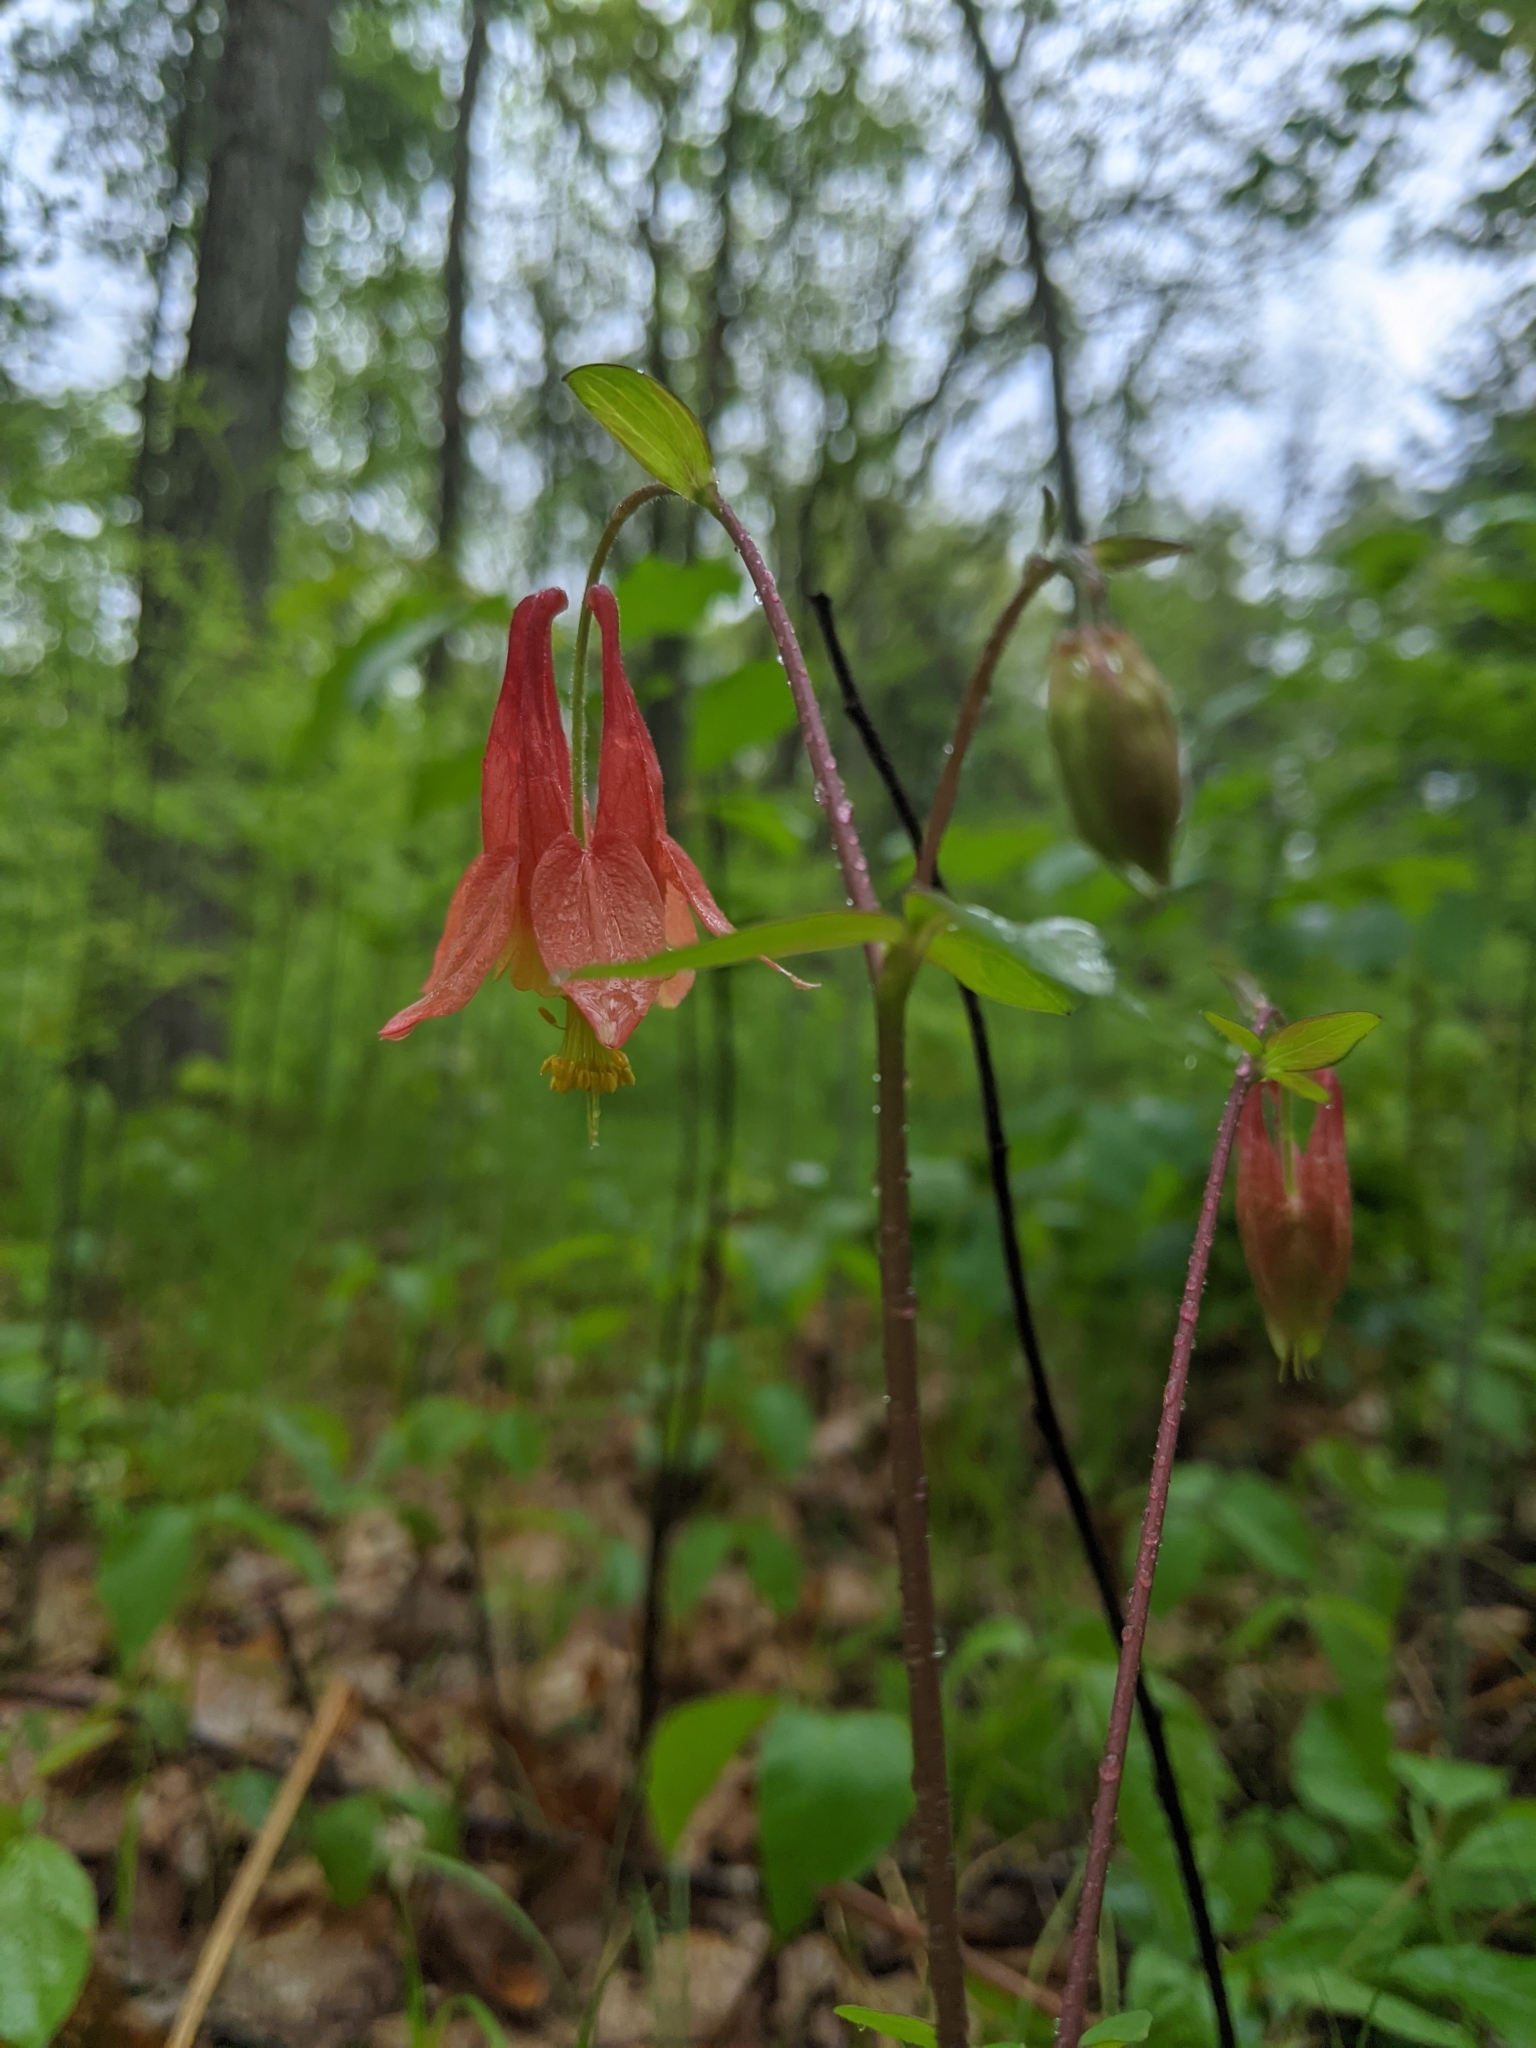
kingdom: Plantae
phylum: Tracheophyta
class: Magnoliopsida
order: Ranunculales
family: Ranunculaceae
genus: Aquilegia
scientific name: Aquilegia canadensis
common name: American columbine
